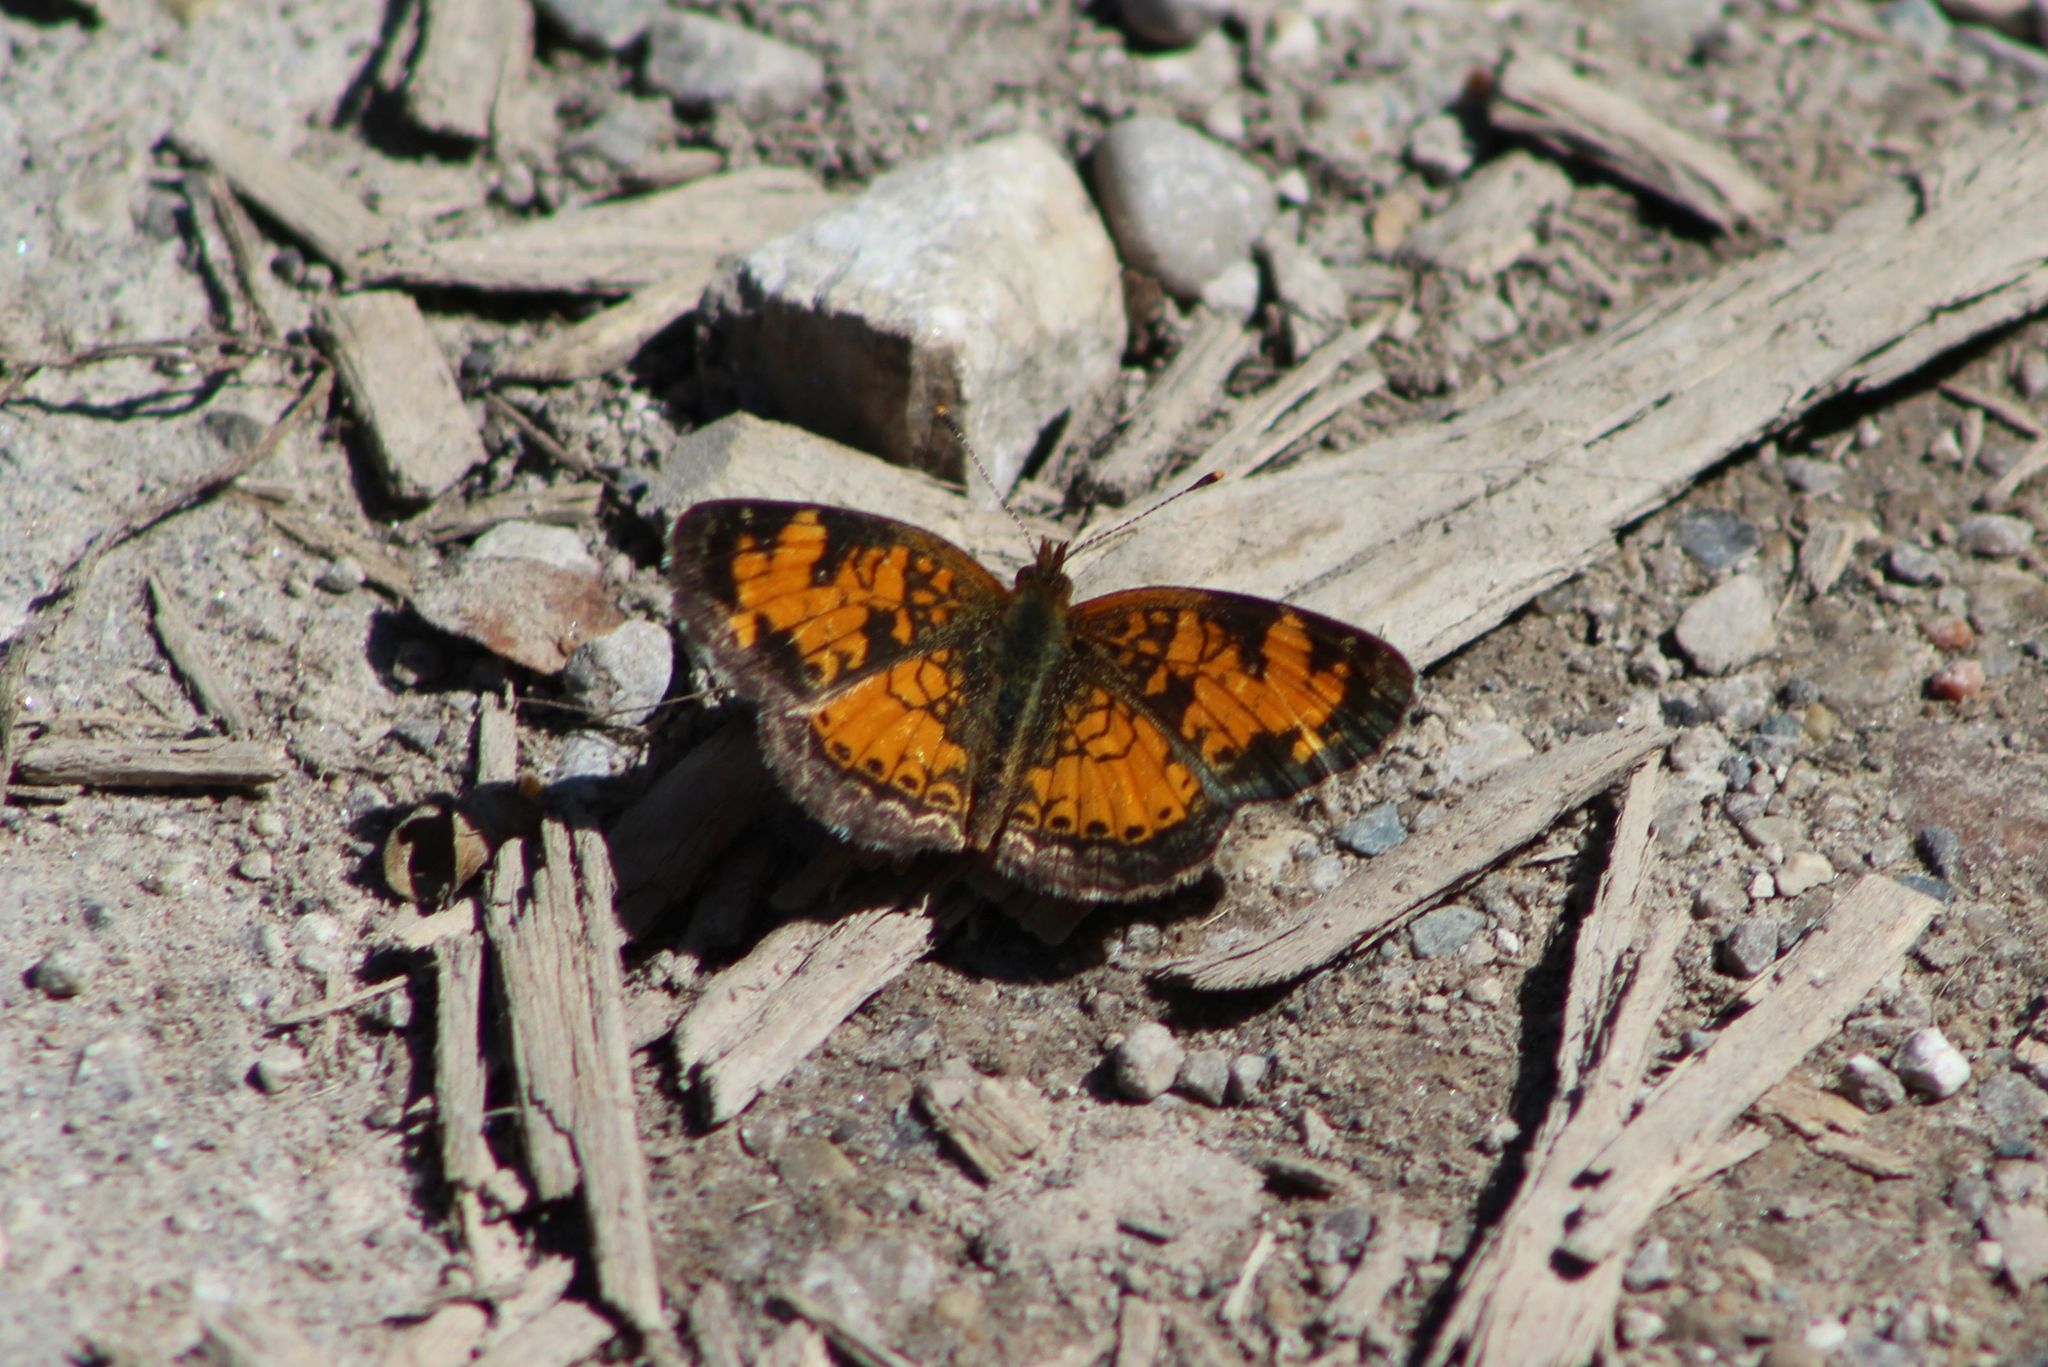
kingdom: Animalia
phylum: Arthropoda
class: Insecta
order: Lepidoptera
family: Nymphalidae
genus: Phyciodes
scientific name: Phyciodes tharos
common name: Pearl crescent
